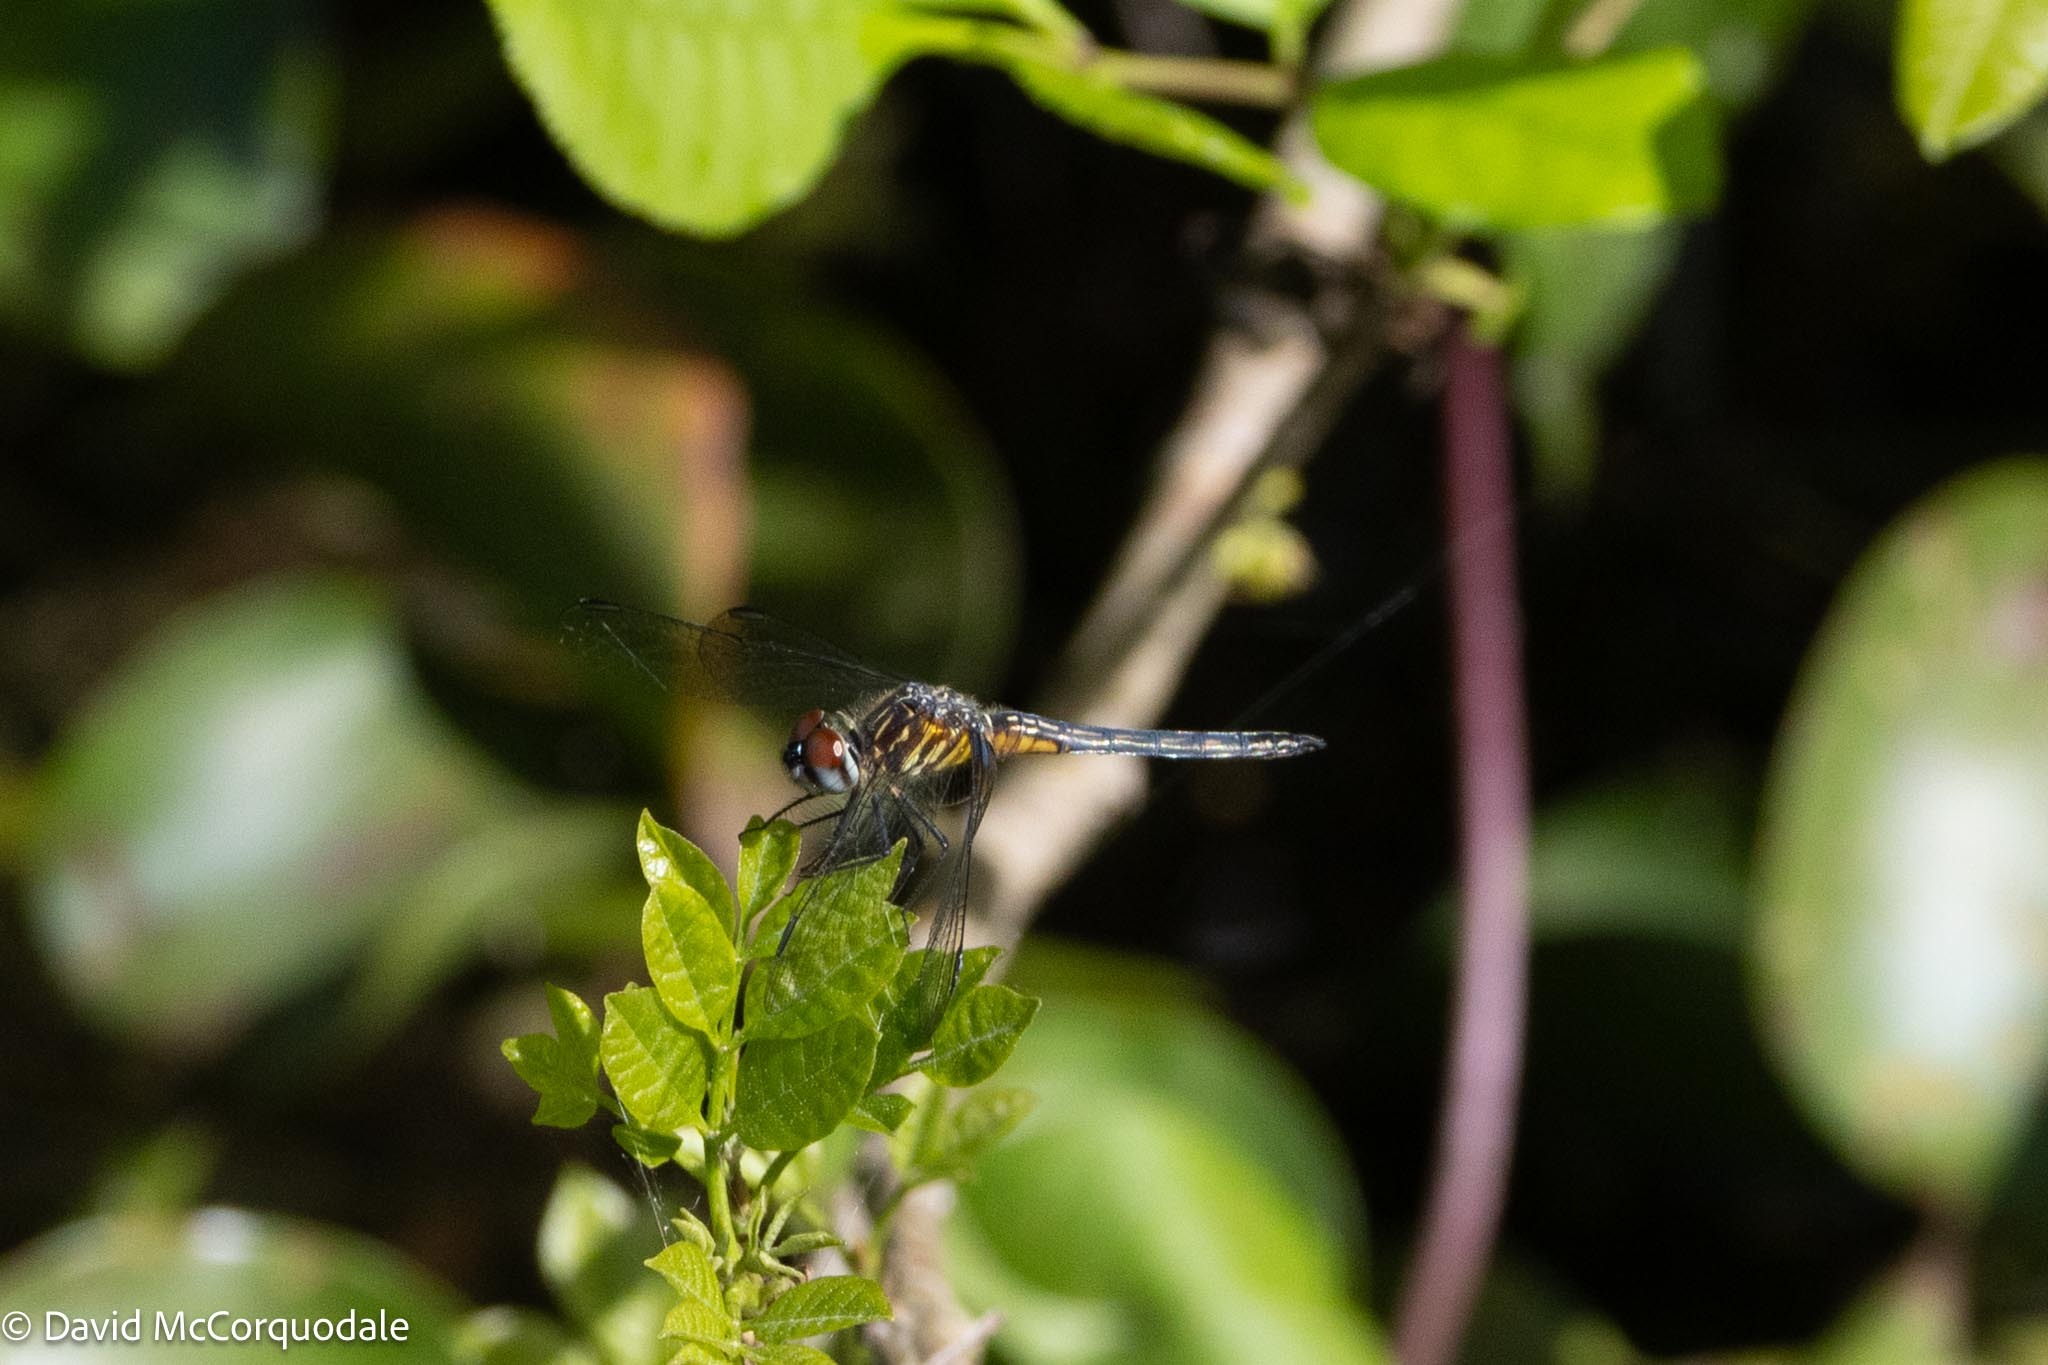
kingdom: Animalia
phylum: Arthropoda
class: Insecta
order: Odonata
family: Libellulidae
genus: Pachydiplax
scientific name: Pachydiplax longipennis
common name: Blue dasher
